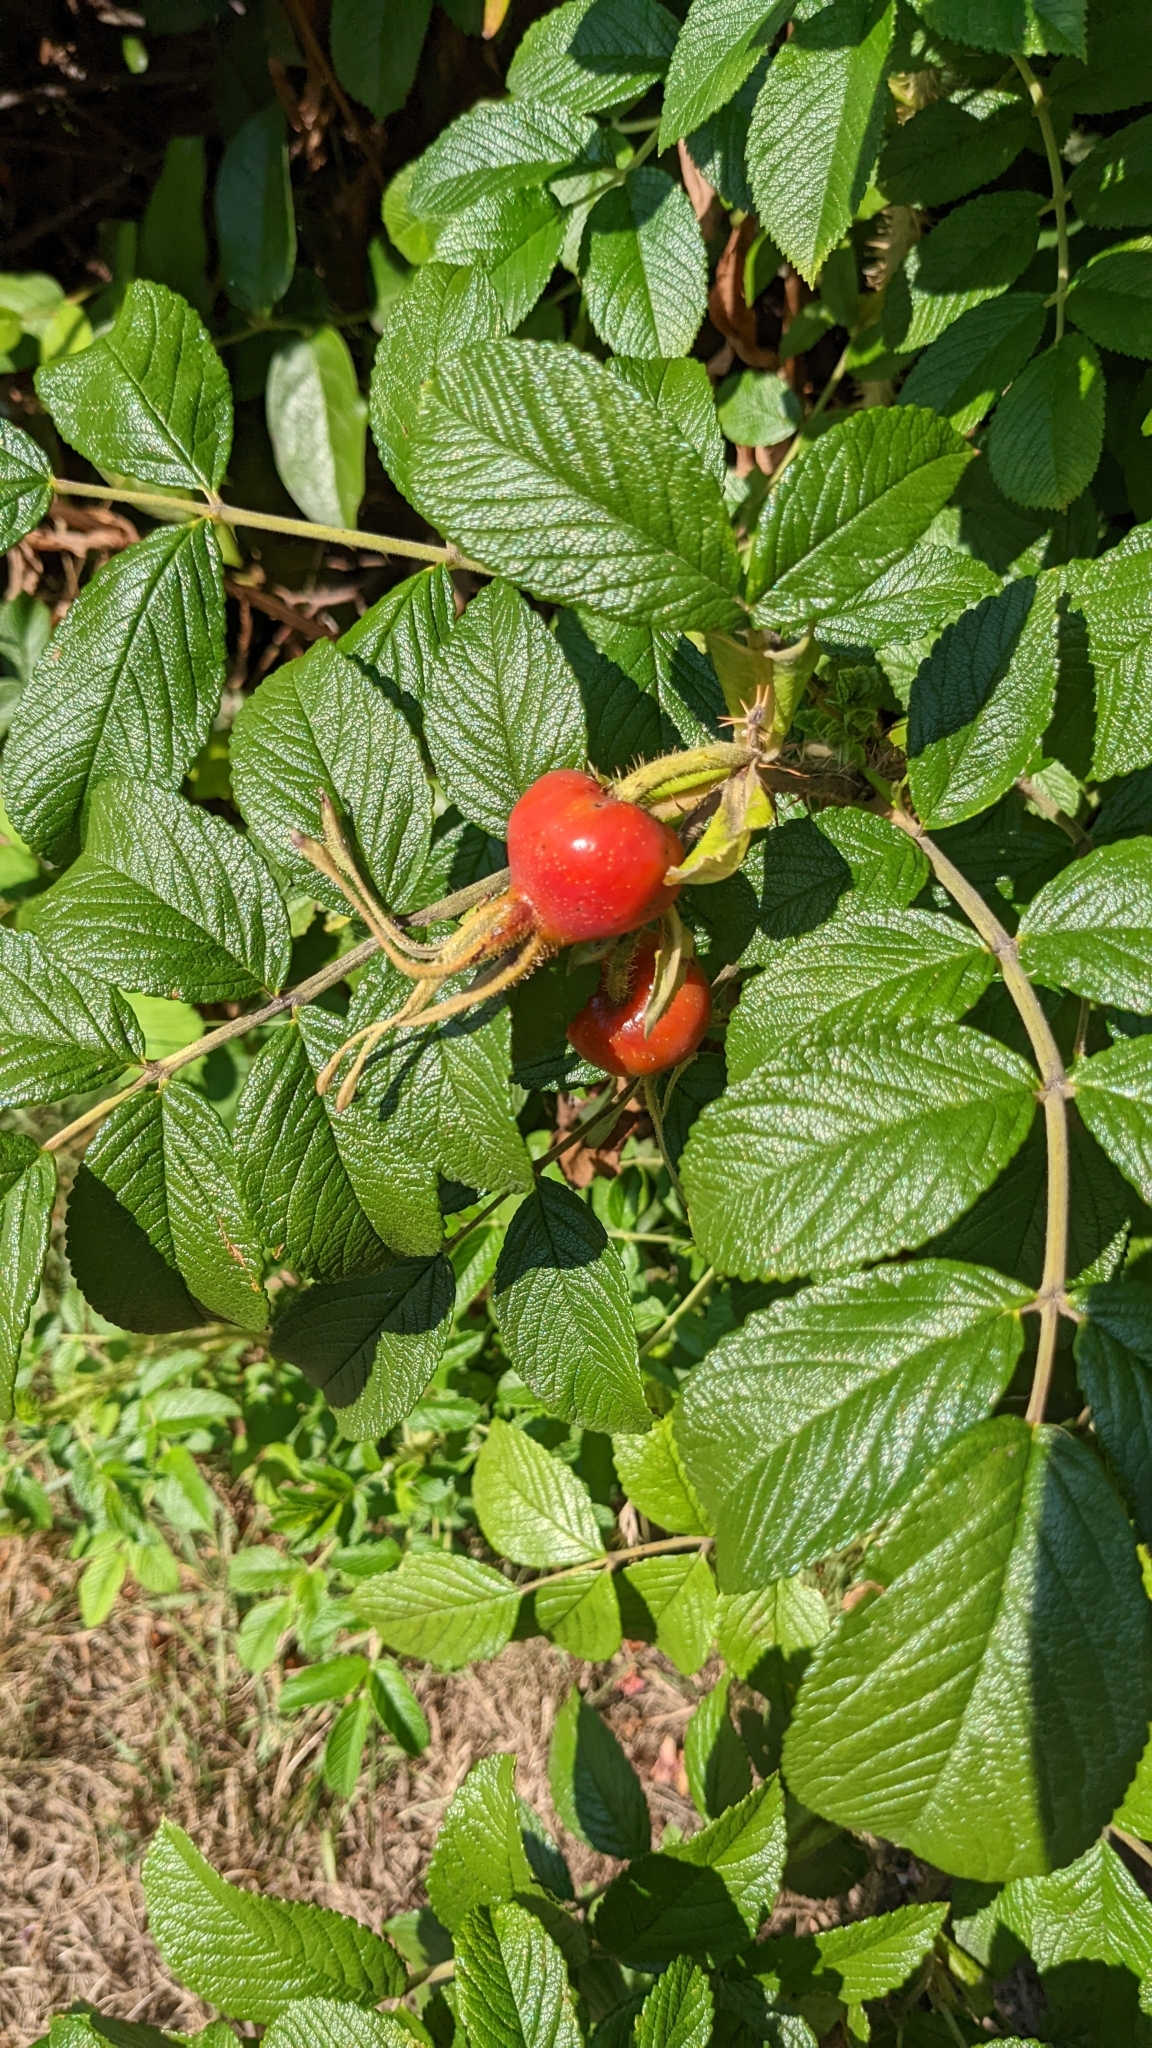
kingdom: Plantae
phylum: Tracheophyta
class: Magnoliopsida
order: Rosales
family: Rosaceae
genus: Rosa
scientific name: Rosa rugosa
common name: Japanese rose
